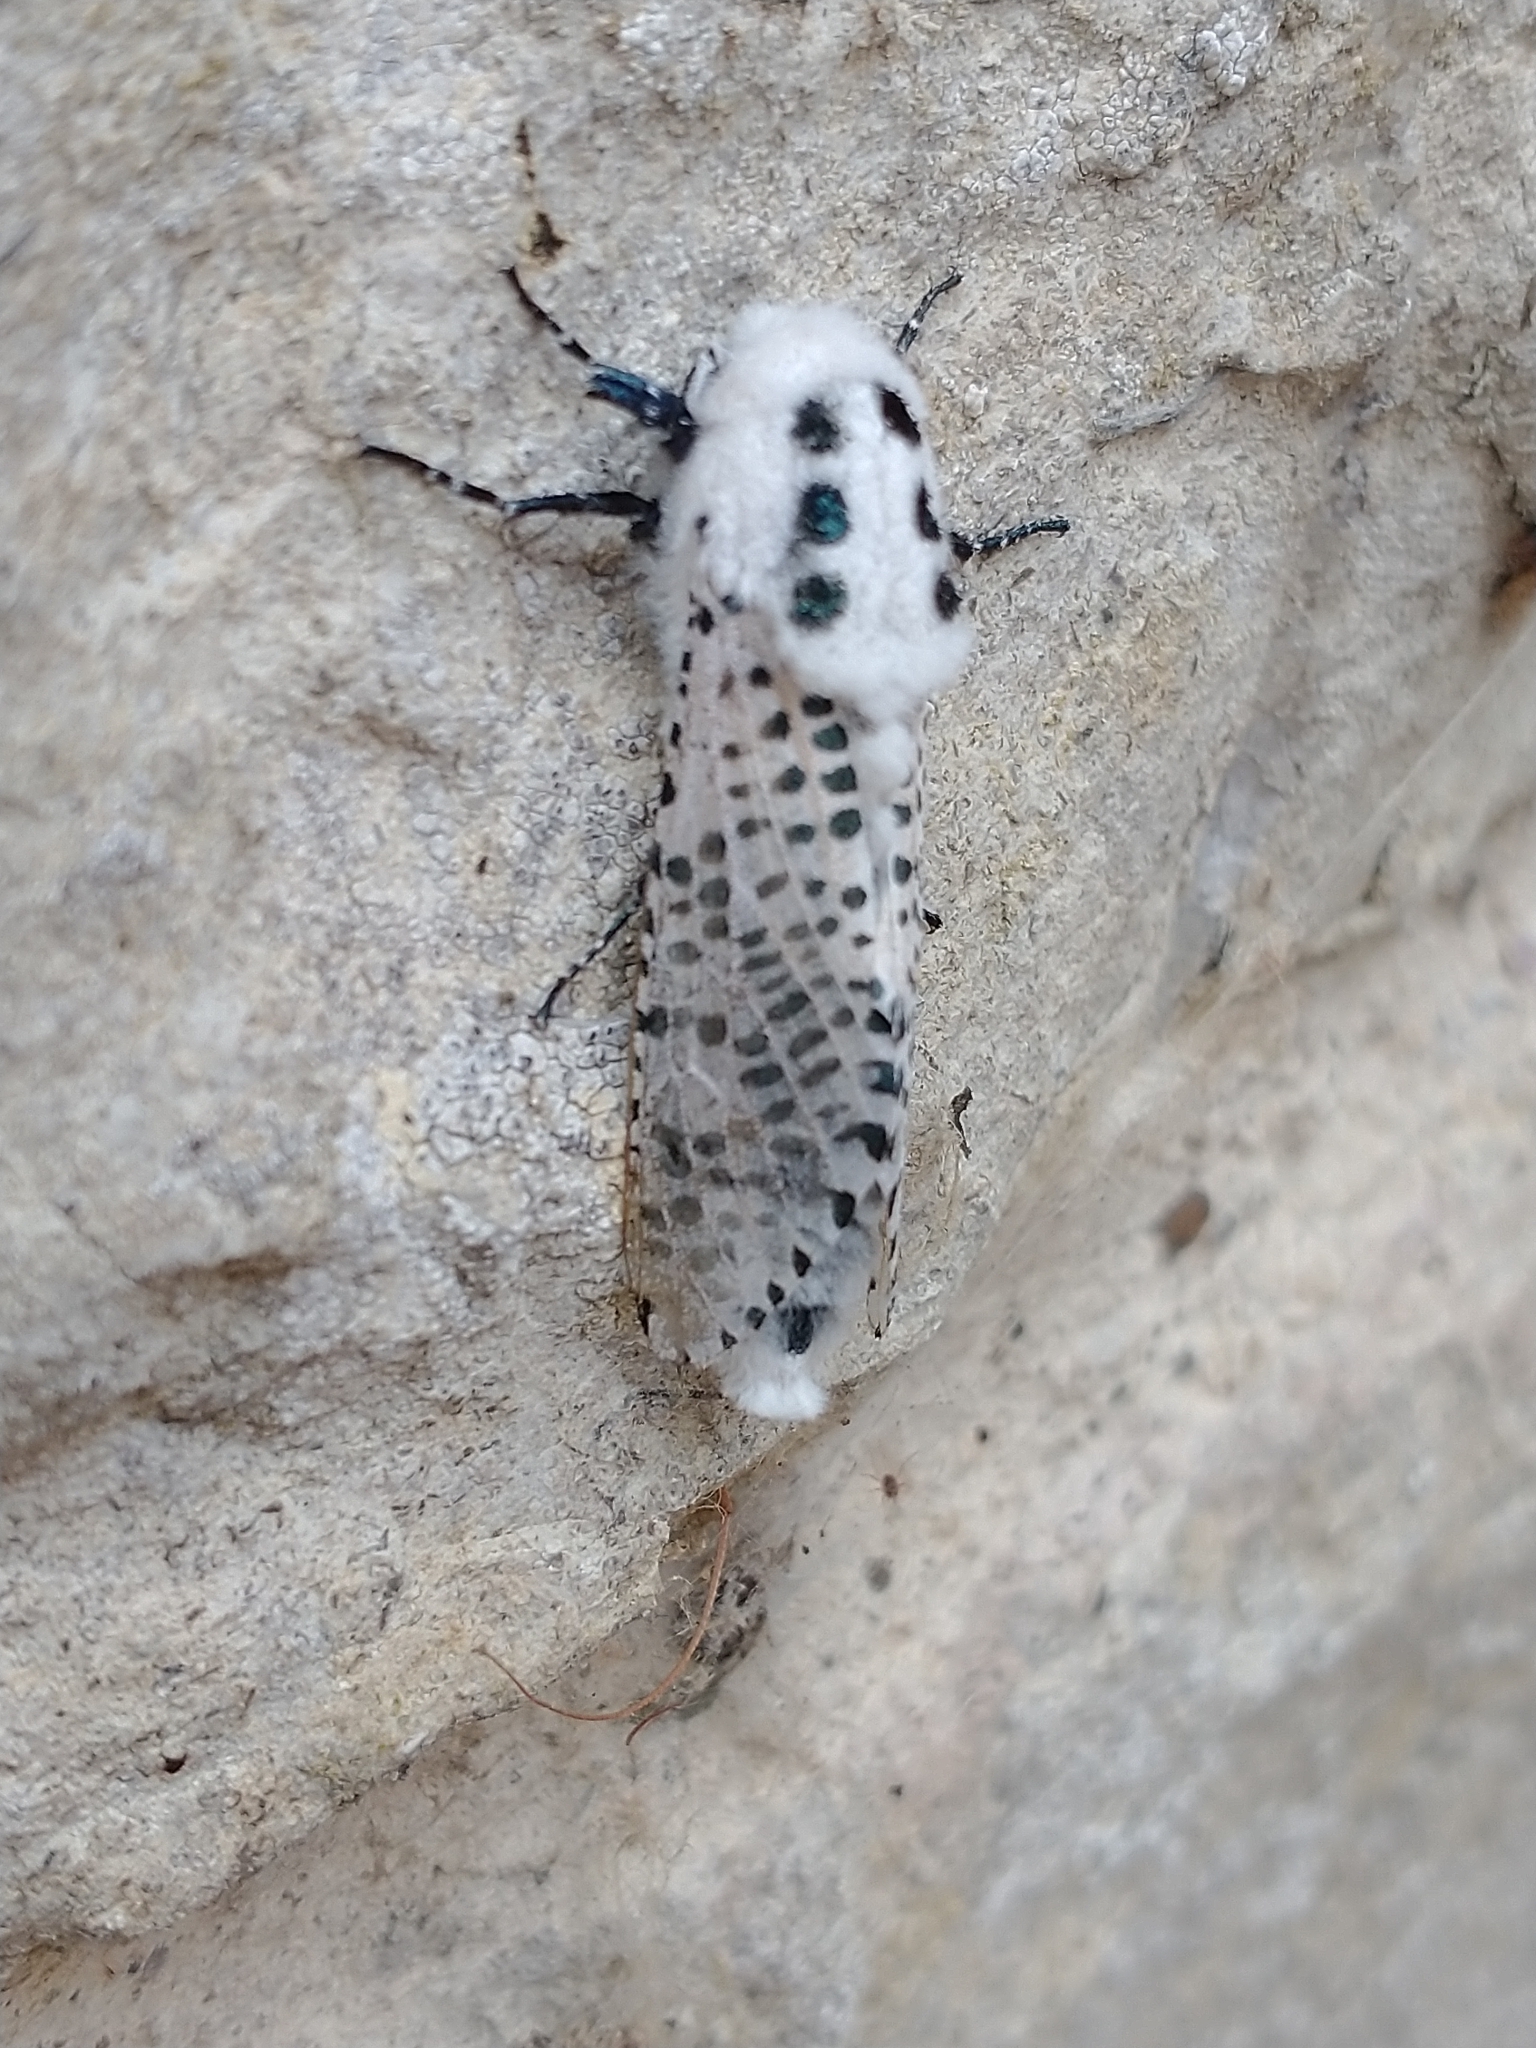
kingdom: Animalia
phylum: Arthropoda
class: Insecta
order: Lepidoptera
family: Cossidae
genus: Zeuzera
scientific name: Zeuzera pyrina
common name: Leopard moth
